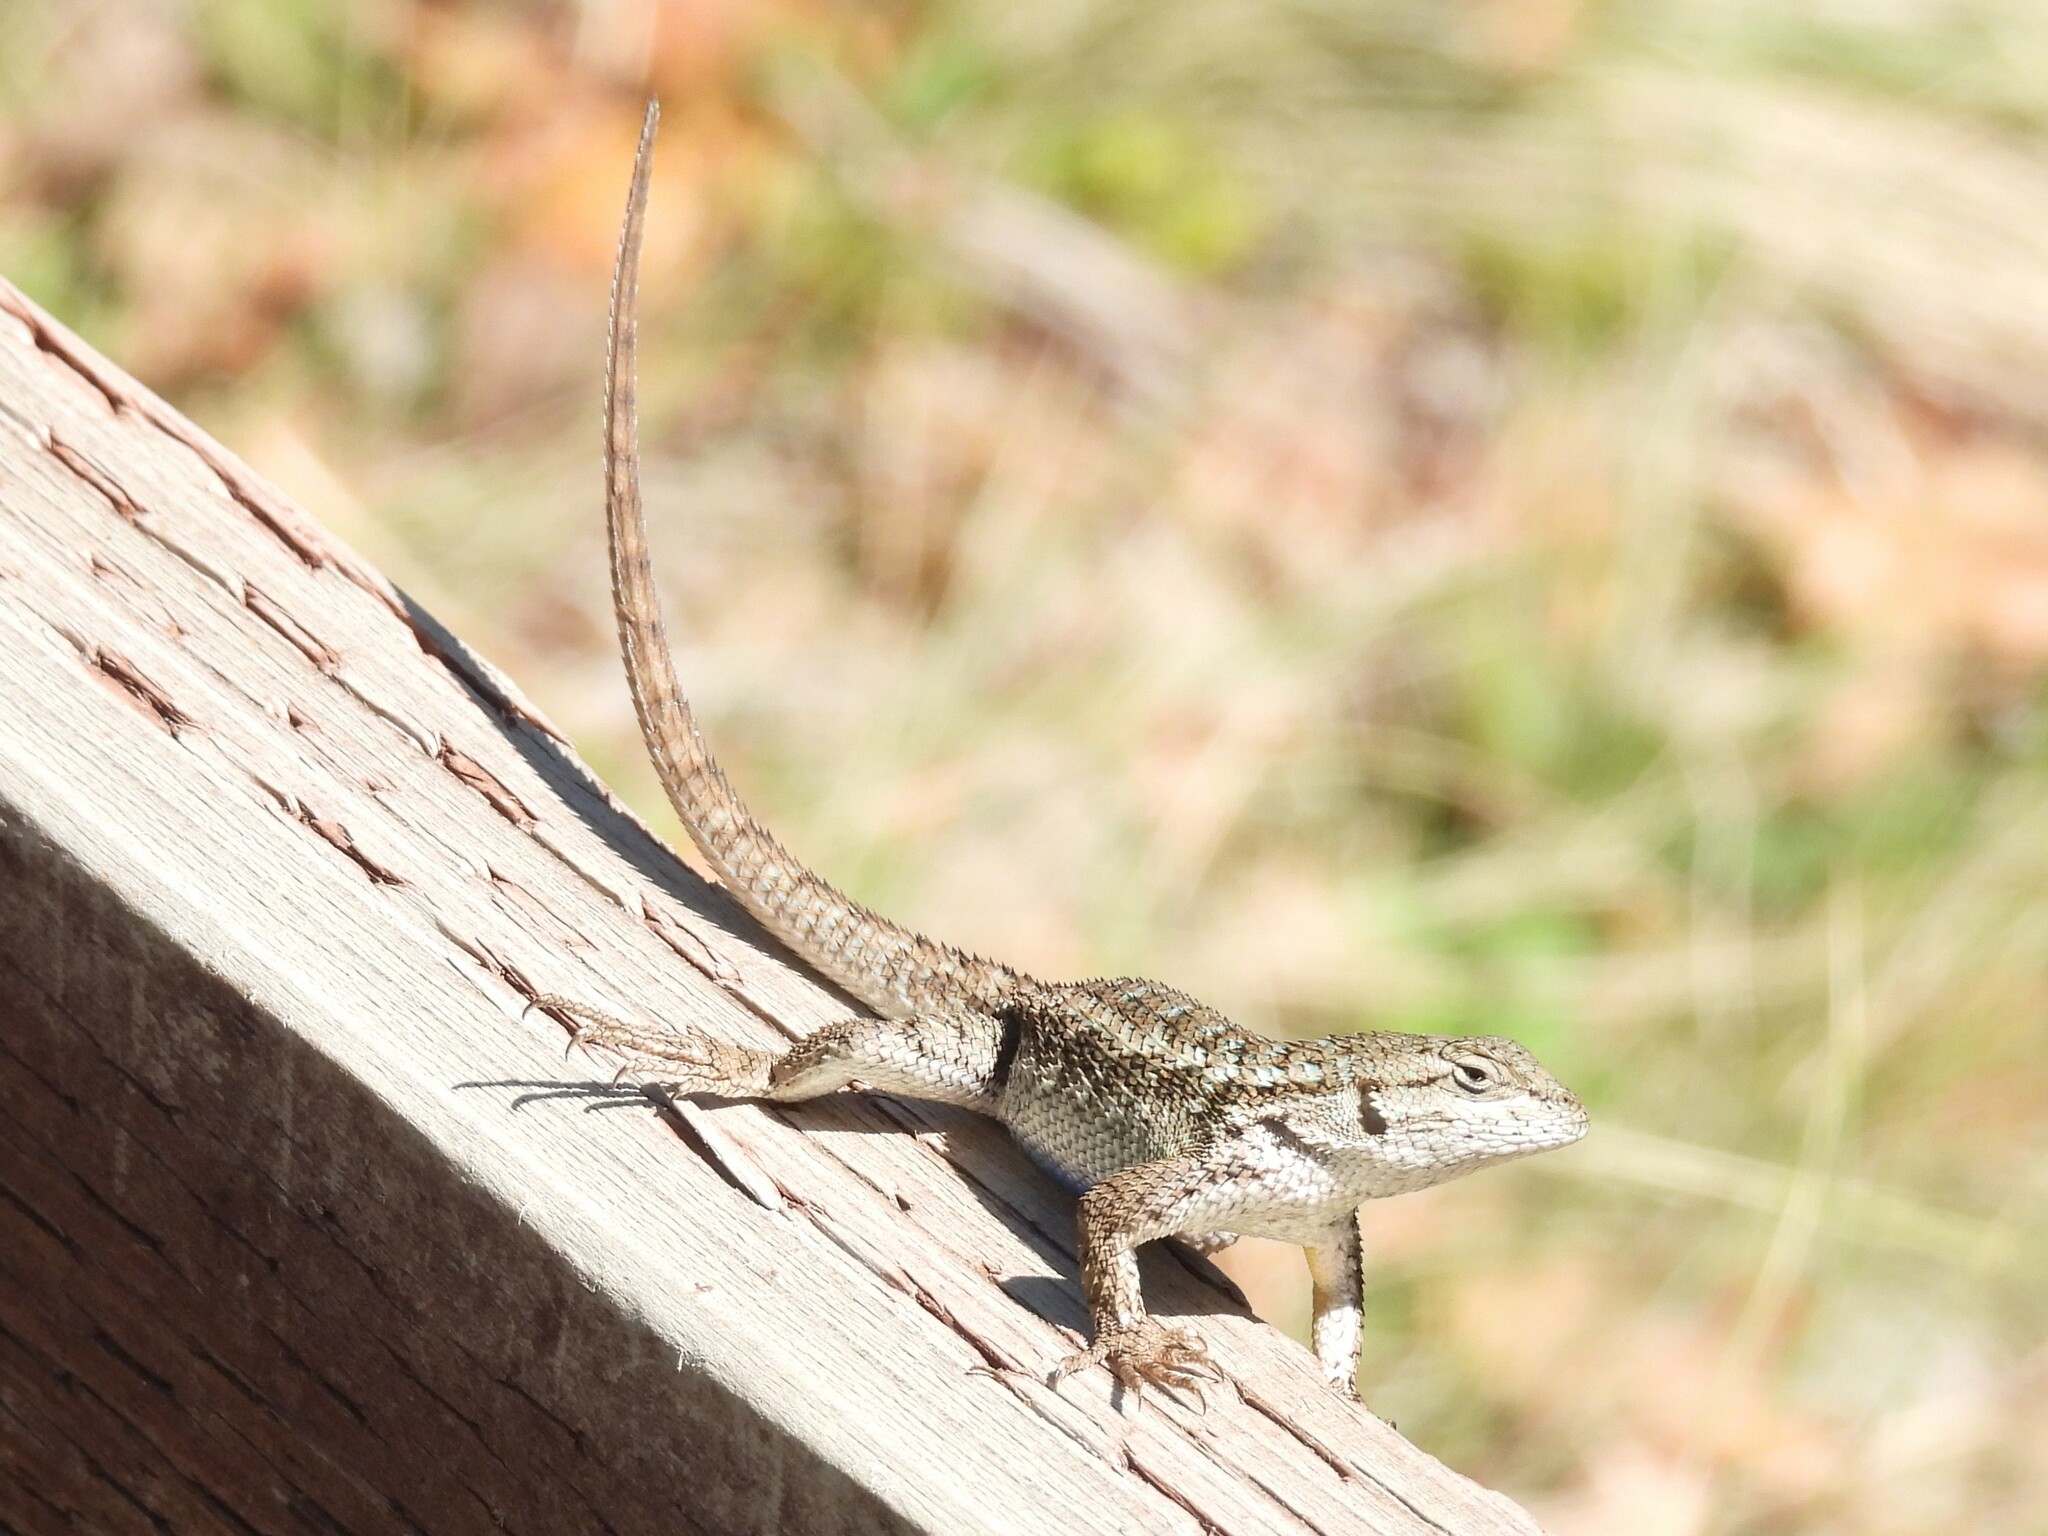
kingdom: Animalia
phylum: Chordata
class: Squamata
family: Phrynosomatidae
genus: Sceloporus
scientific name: Sceloporus occidentalis
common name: Western fence lizard
